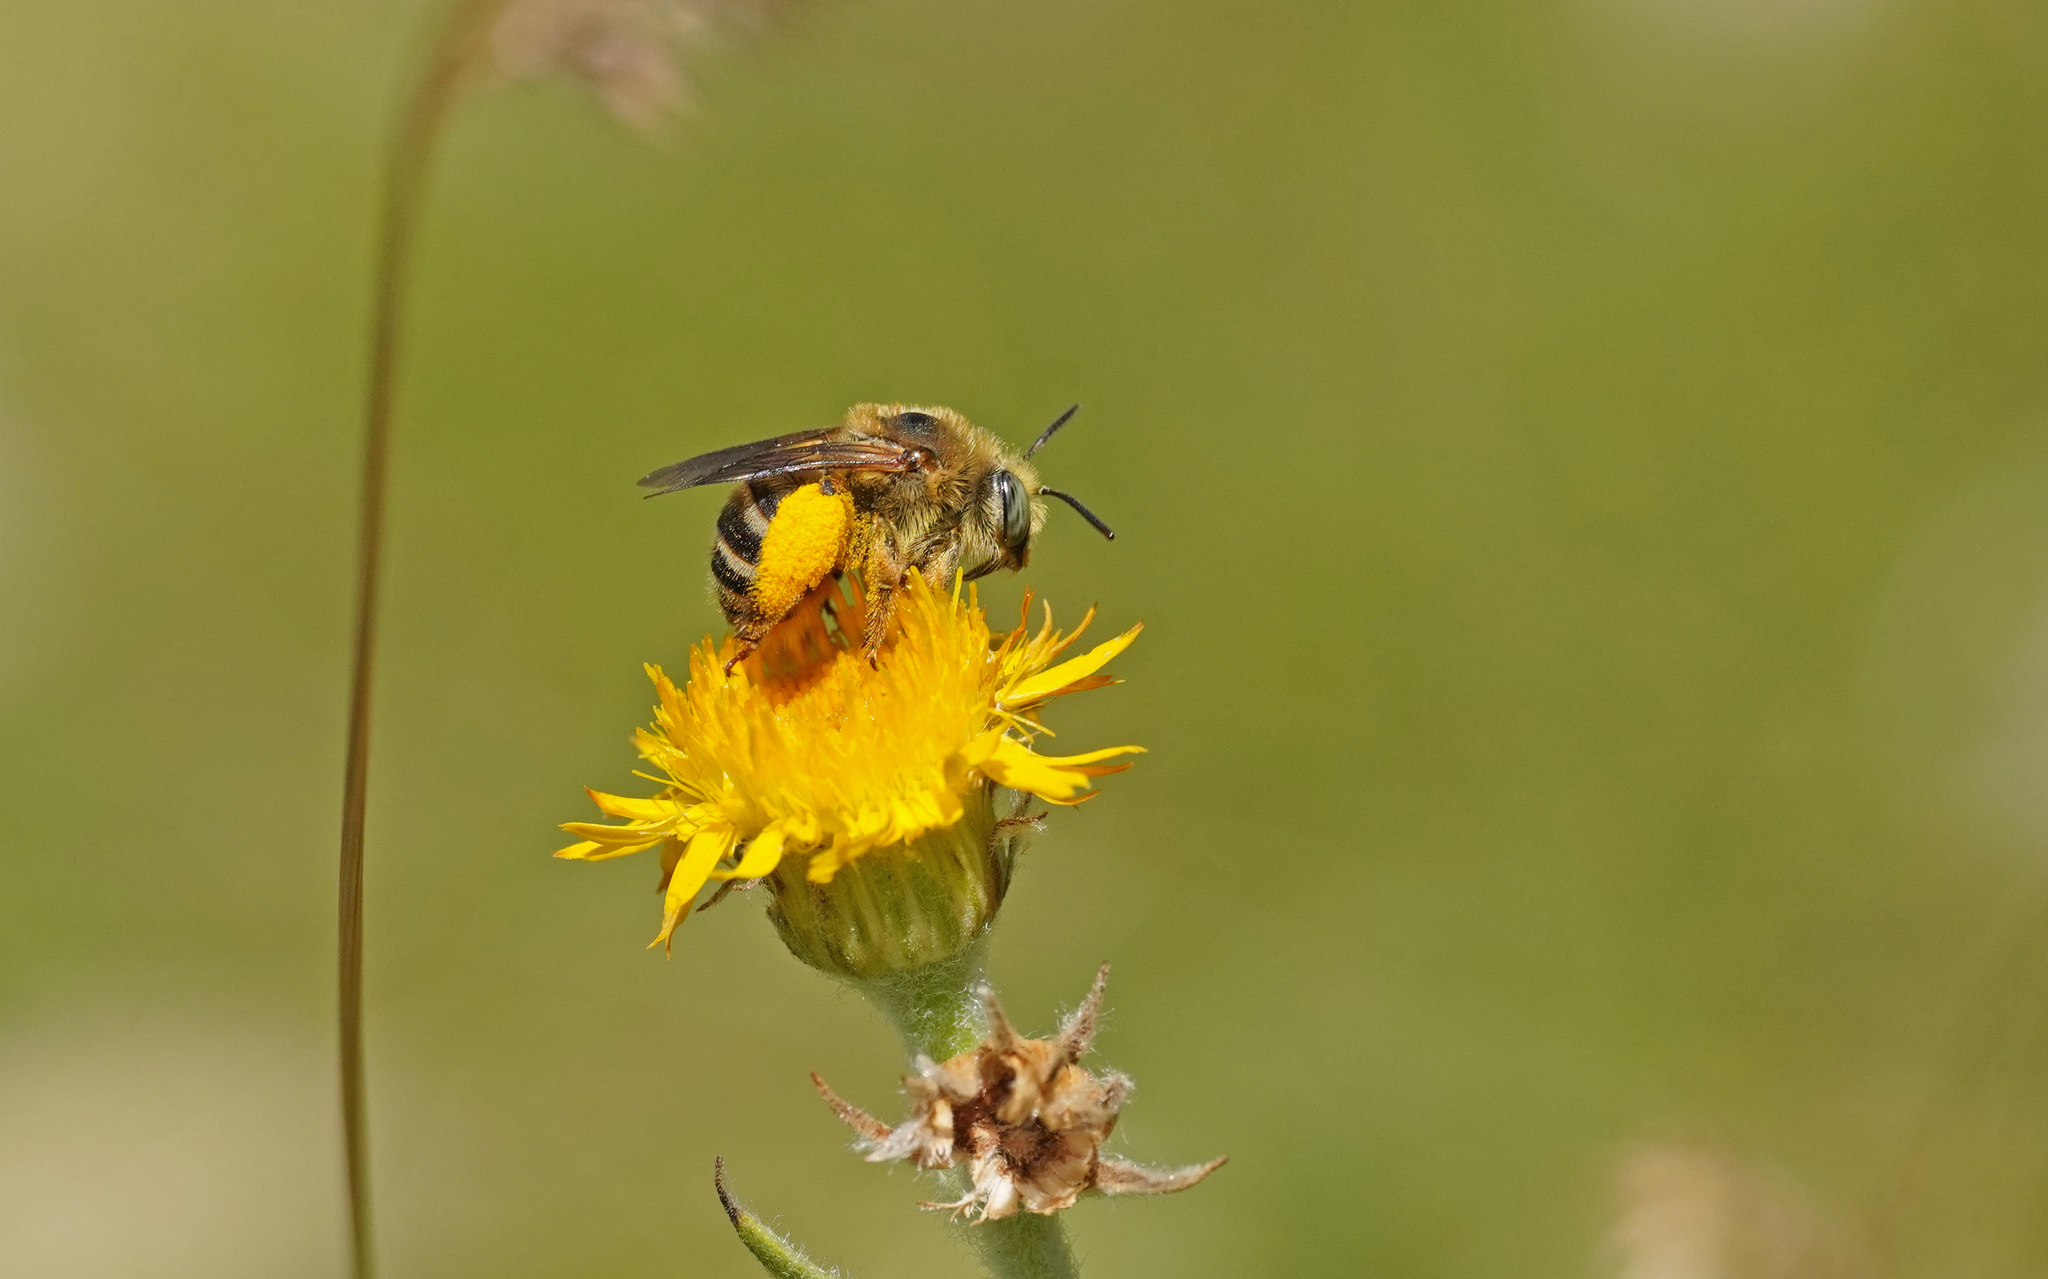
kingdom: Animalia
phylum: Arthropoda
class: Insecta
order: Hymenoptera
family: Apidae
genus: Tetraloniella
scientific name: Tetraloniella fulvescens
